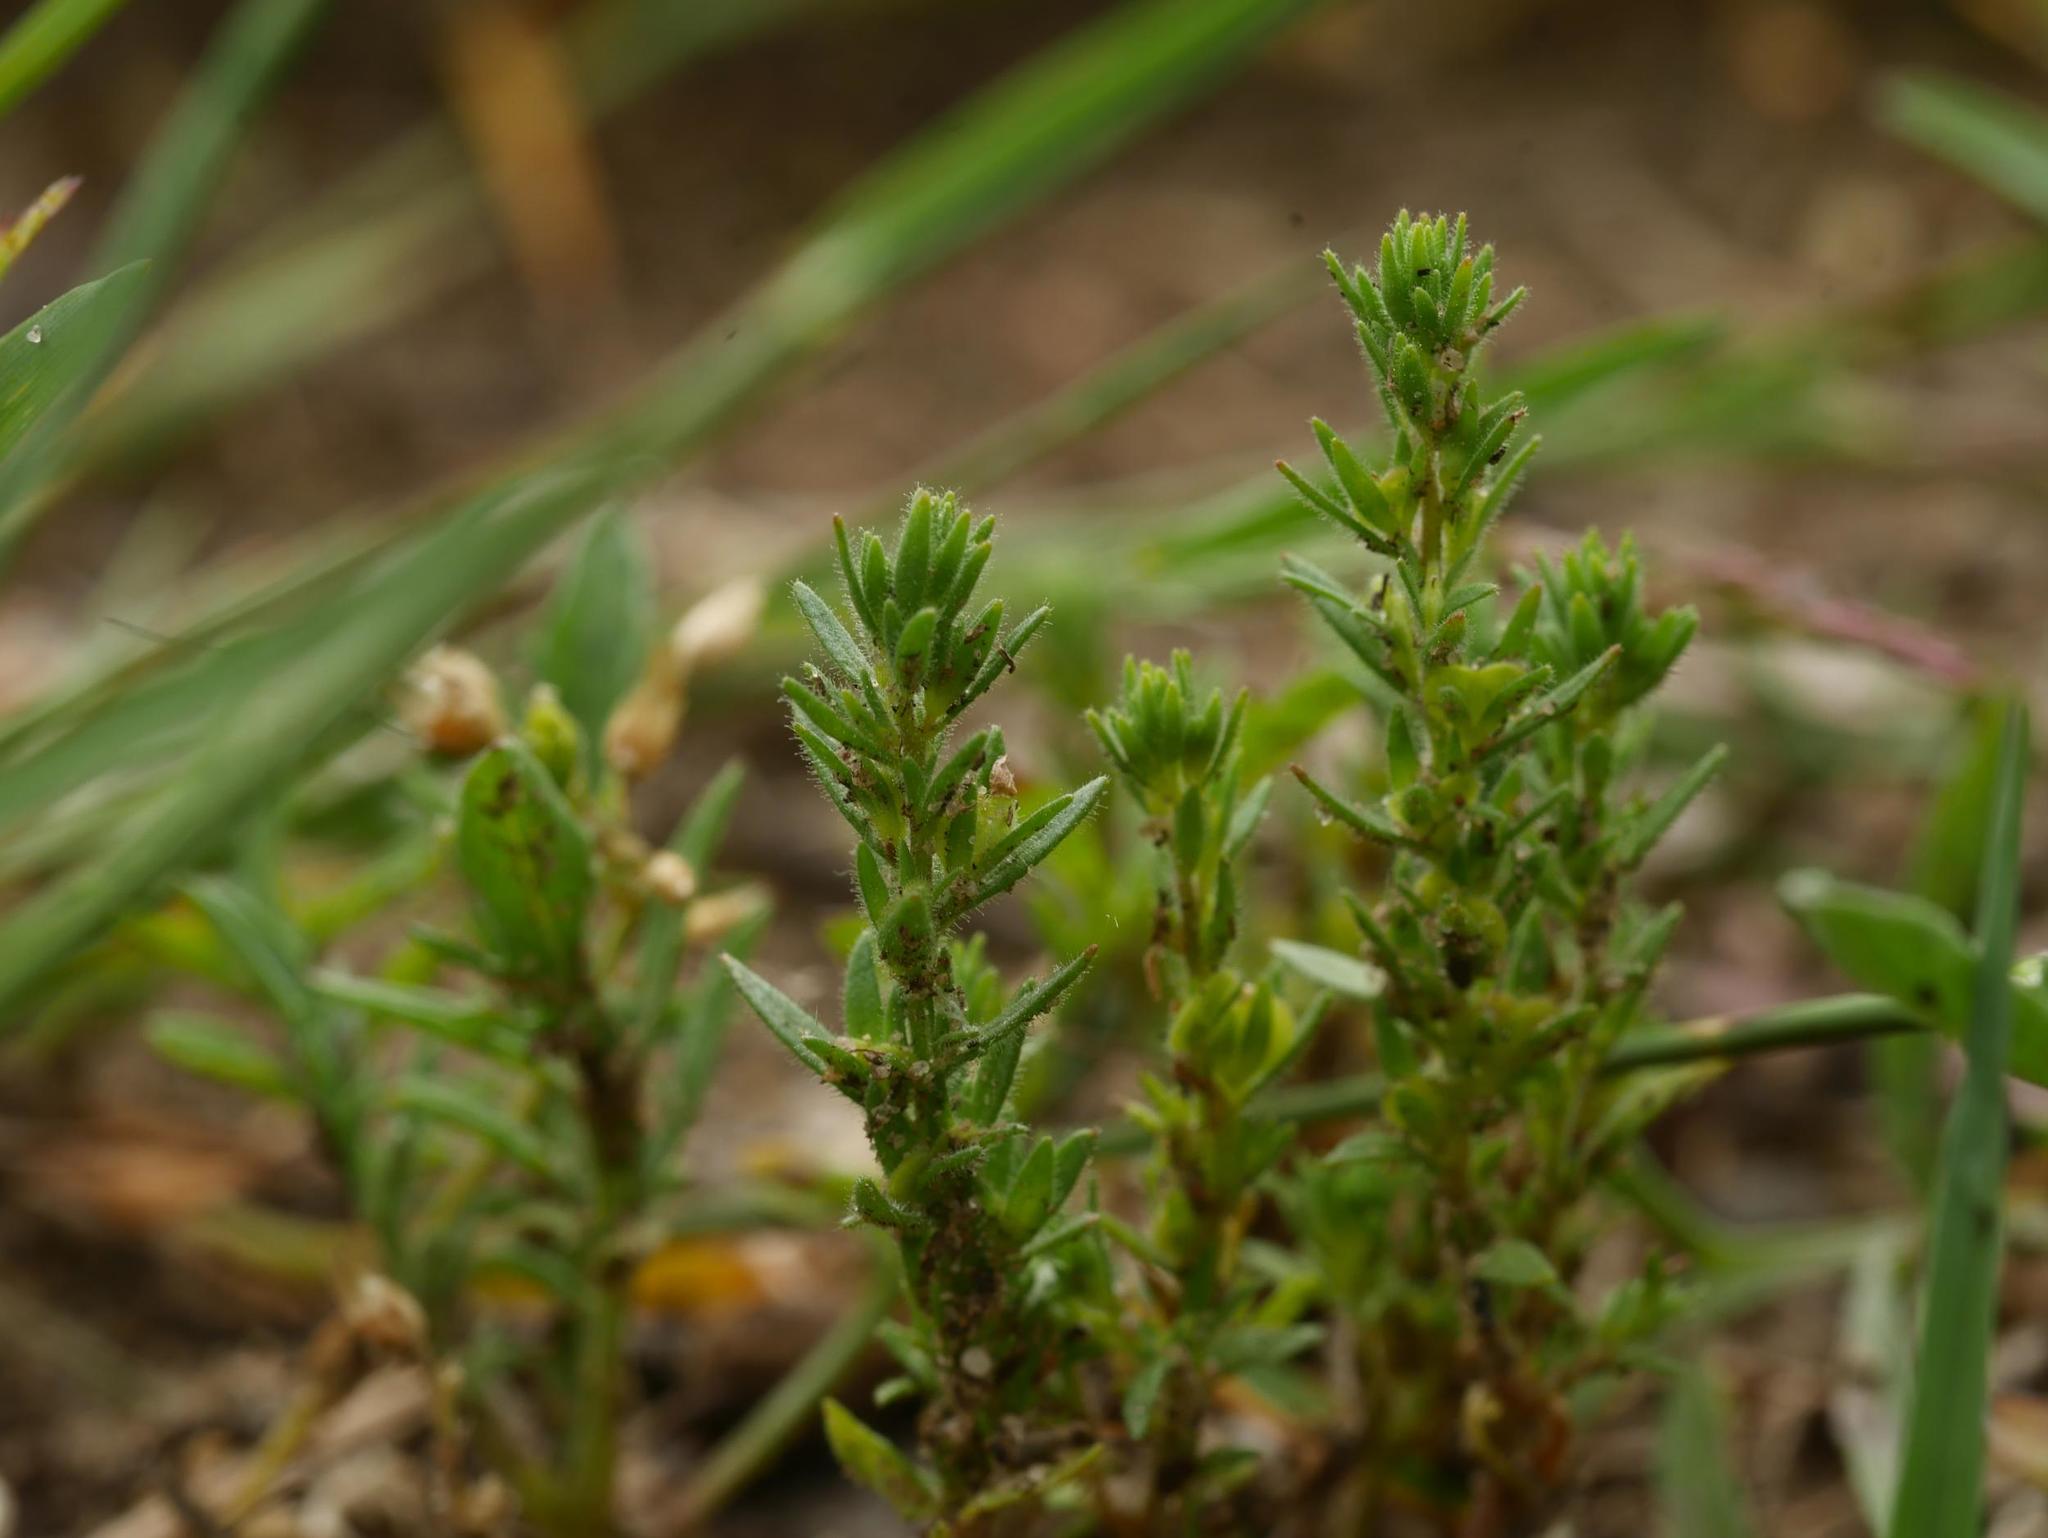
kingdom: Plantae
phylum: Tracheophyta
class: Magnoliopsida
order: Lamiales
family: Plantaginaceae
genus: Veronica
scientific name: Veronica arvensis
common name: Corn speedwell
